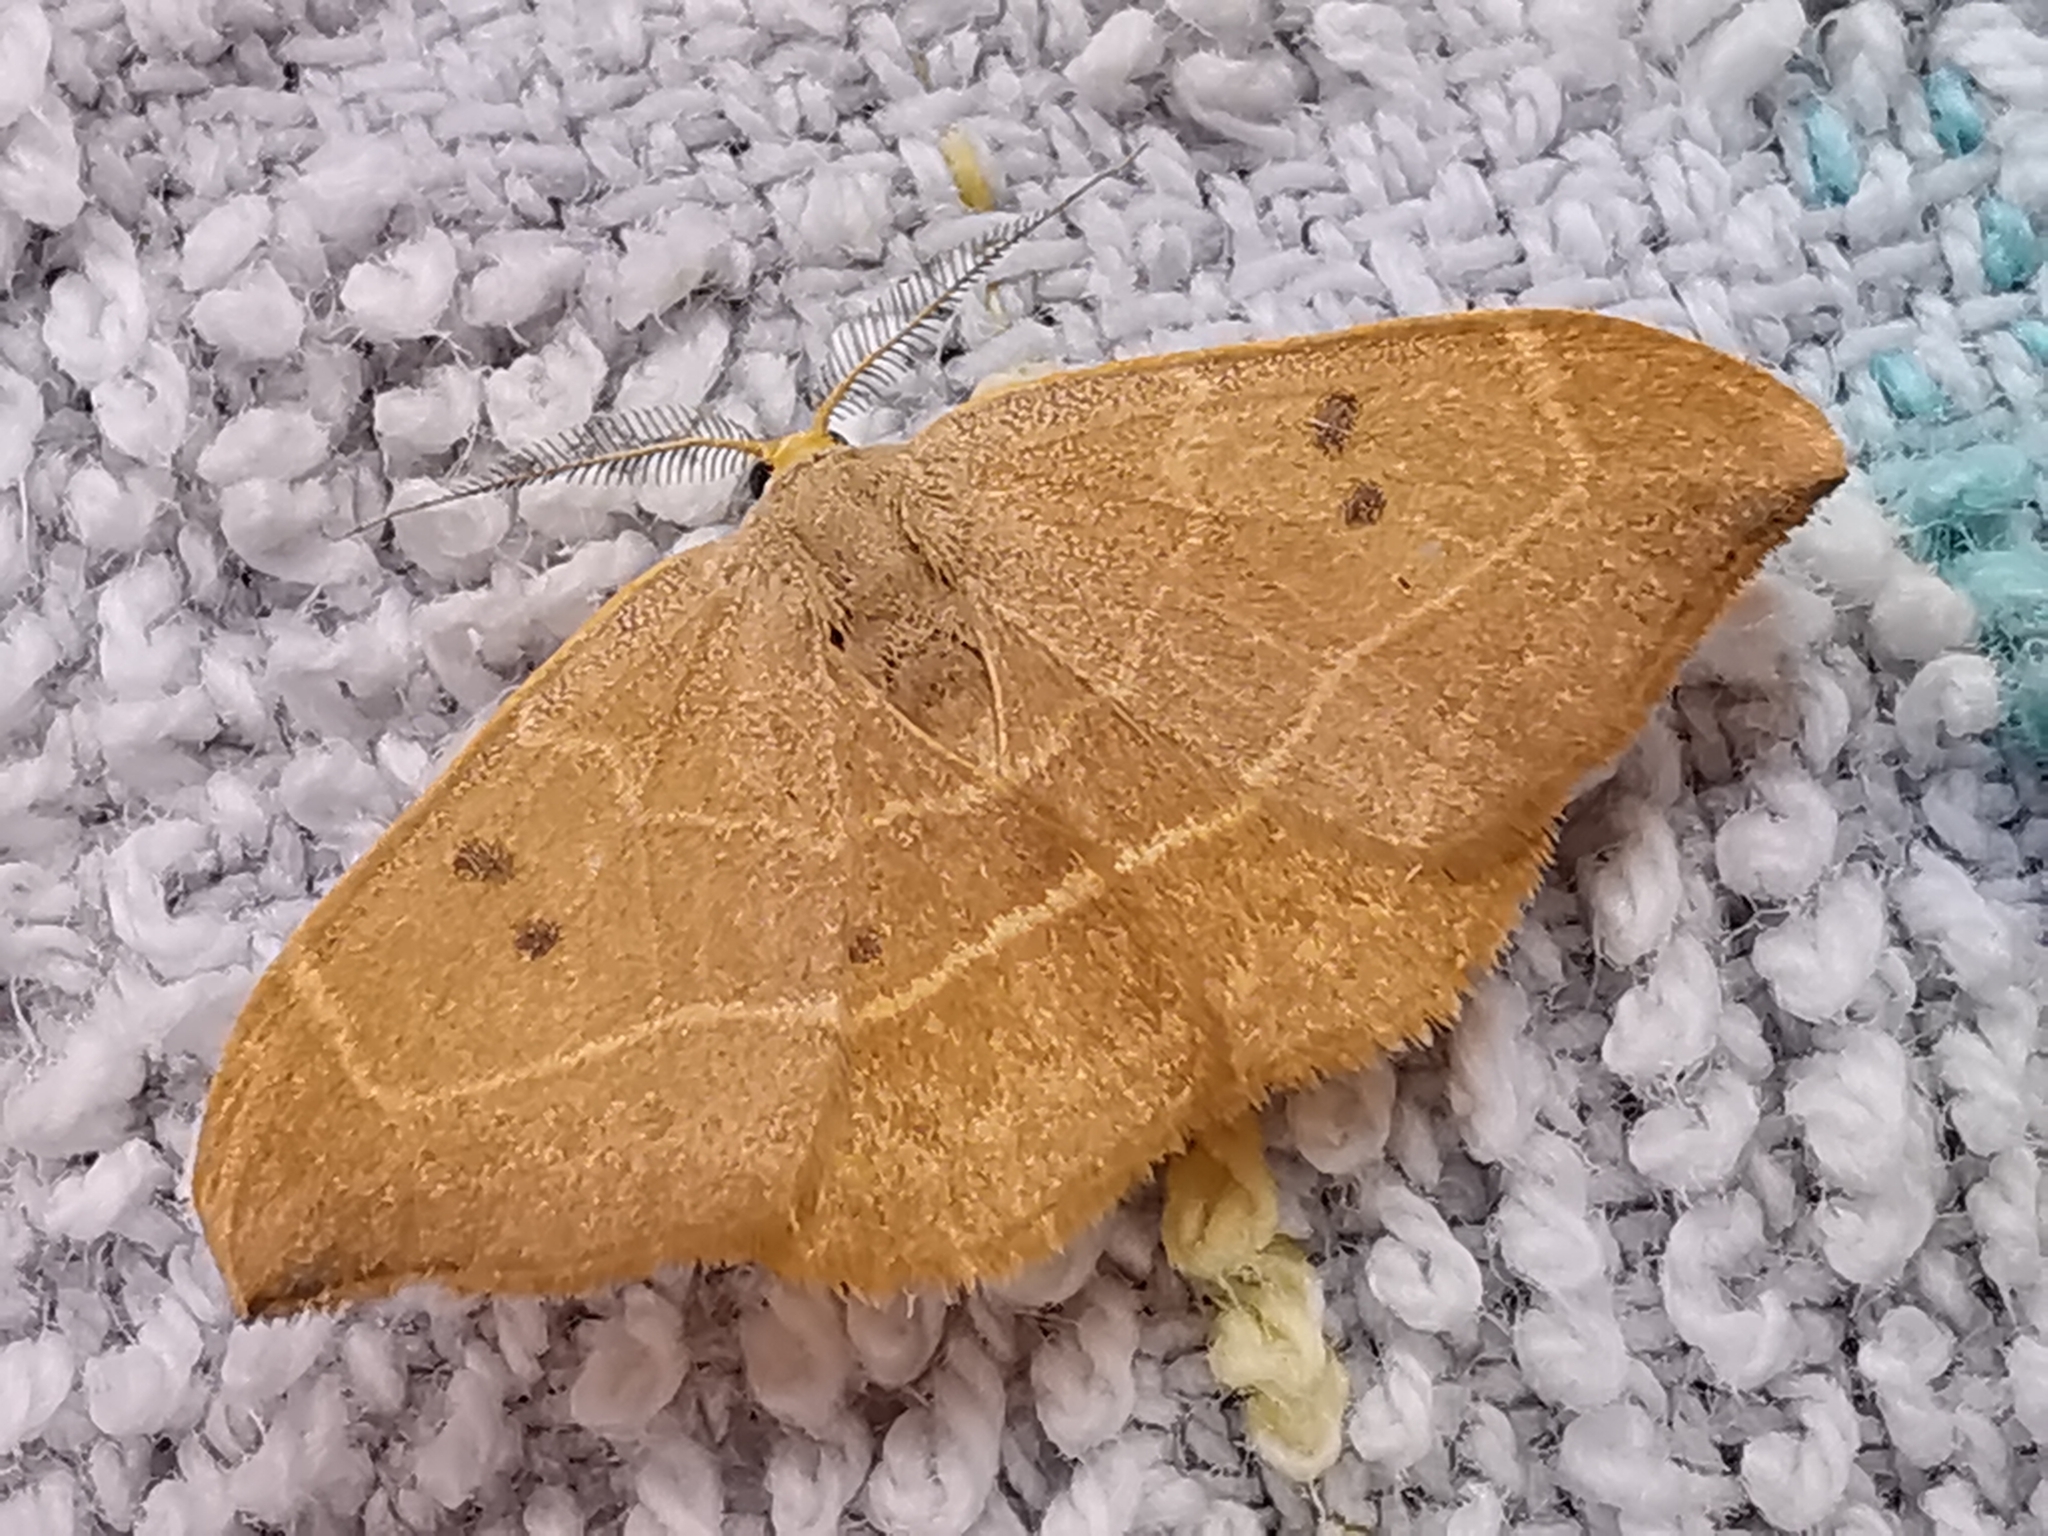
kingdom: Animalia
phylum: Arthropoda
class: Insecta
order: Lepidoptera
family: Drepanidae
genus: Watsonalla
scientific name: Watsonalla binaria
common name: Oak hook-tip
